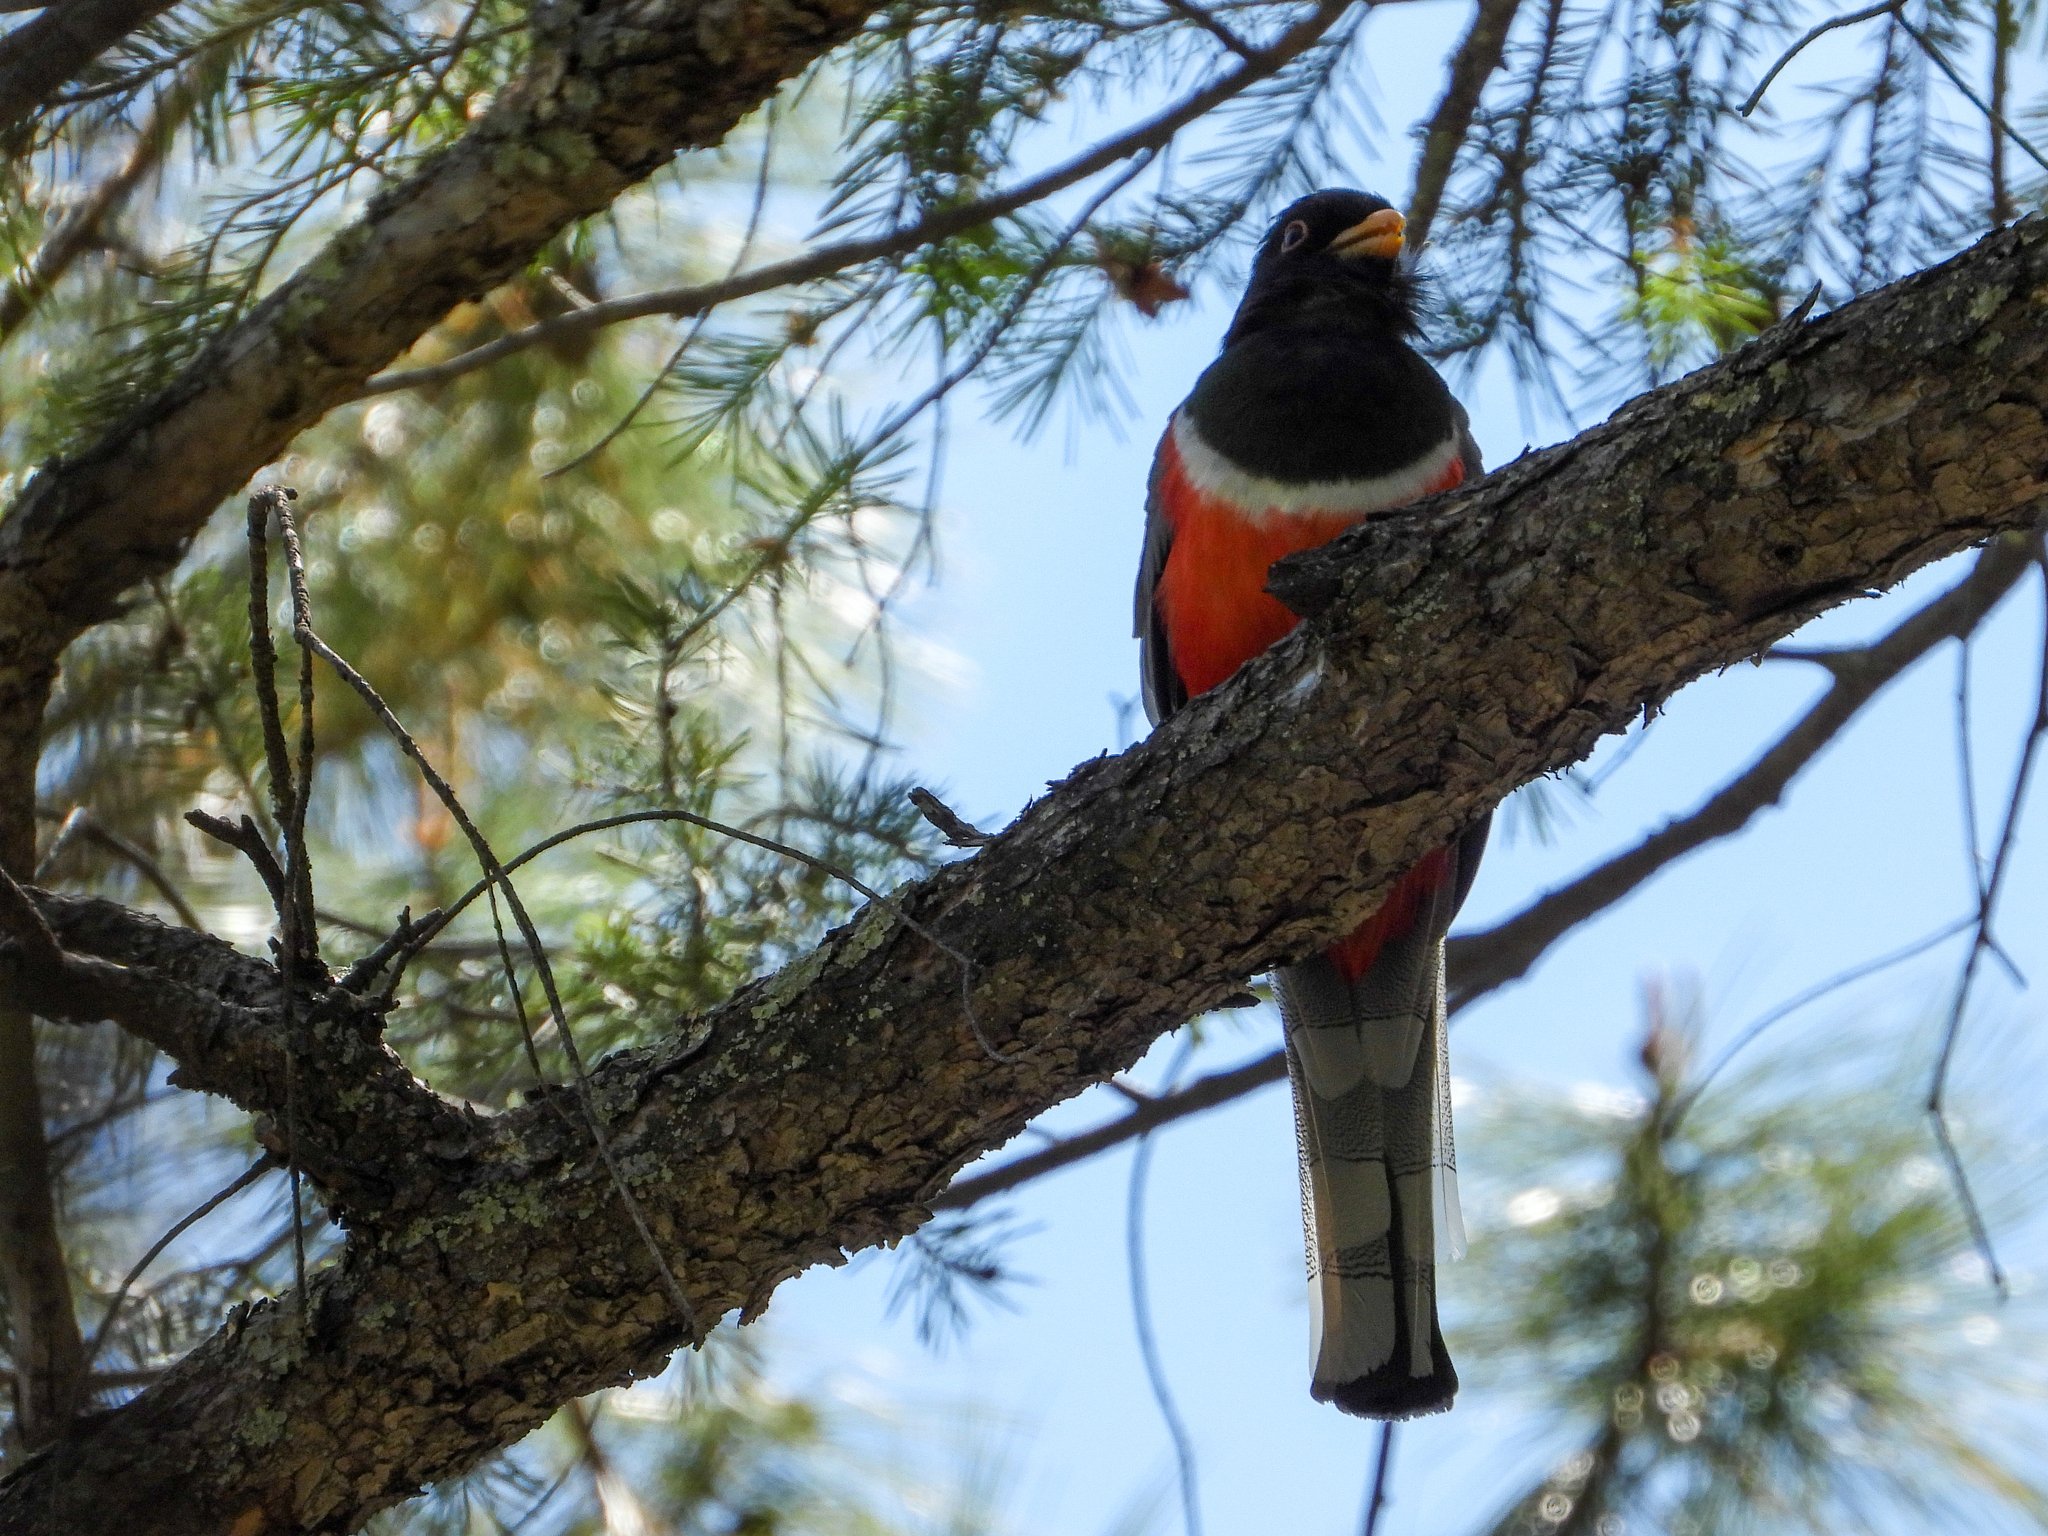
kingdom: Animalia
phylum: Chordata
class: Aves
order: Trogoniformes
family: Trogonidae
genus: Trogon
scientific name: Trogon elegans
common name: Elegant trogon
